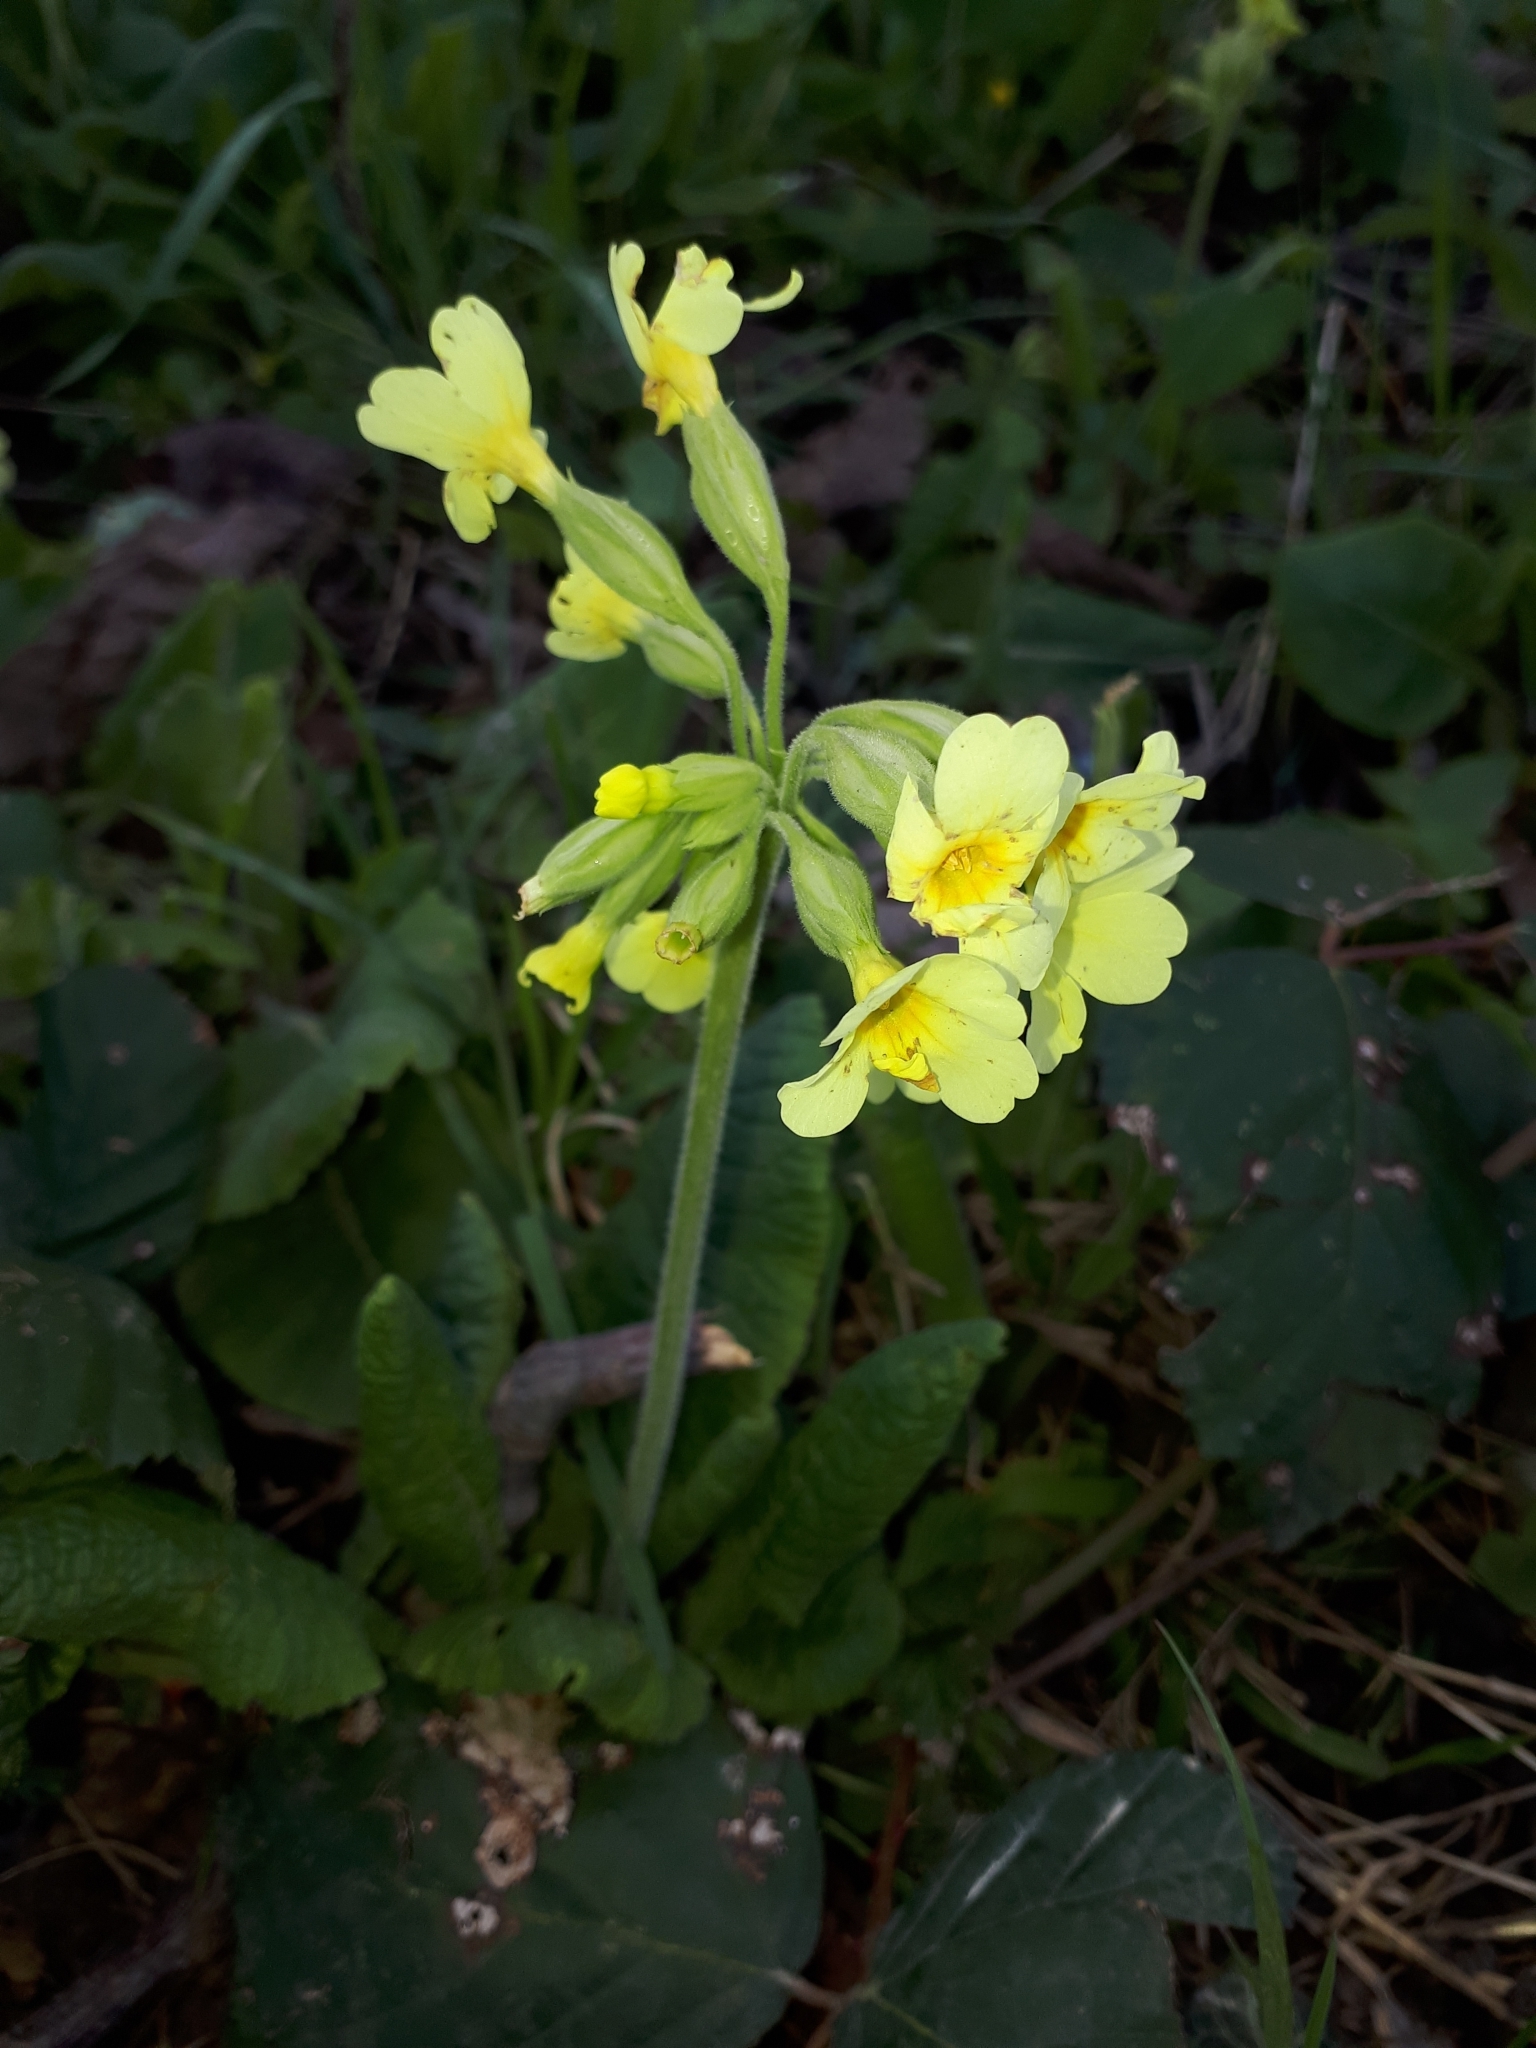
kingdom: Plantae
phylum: Tracheophyta
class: Magnoliopsida
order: Ericales
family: Primulaceae
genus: Primula
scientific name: Primula elatior
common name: Oxlip
